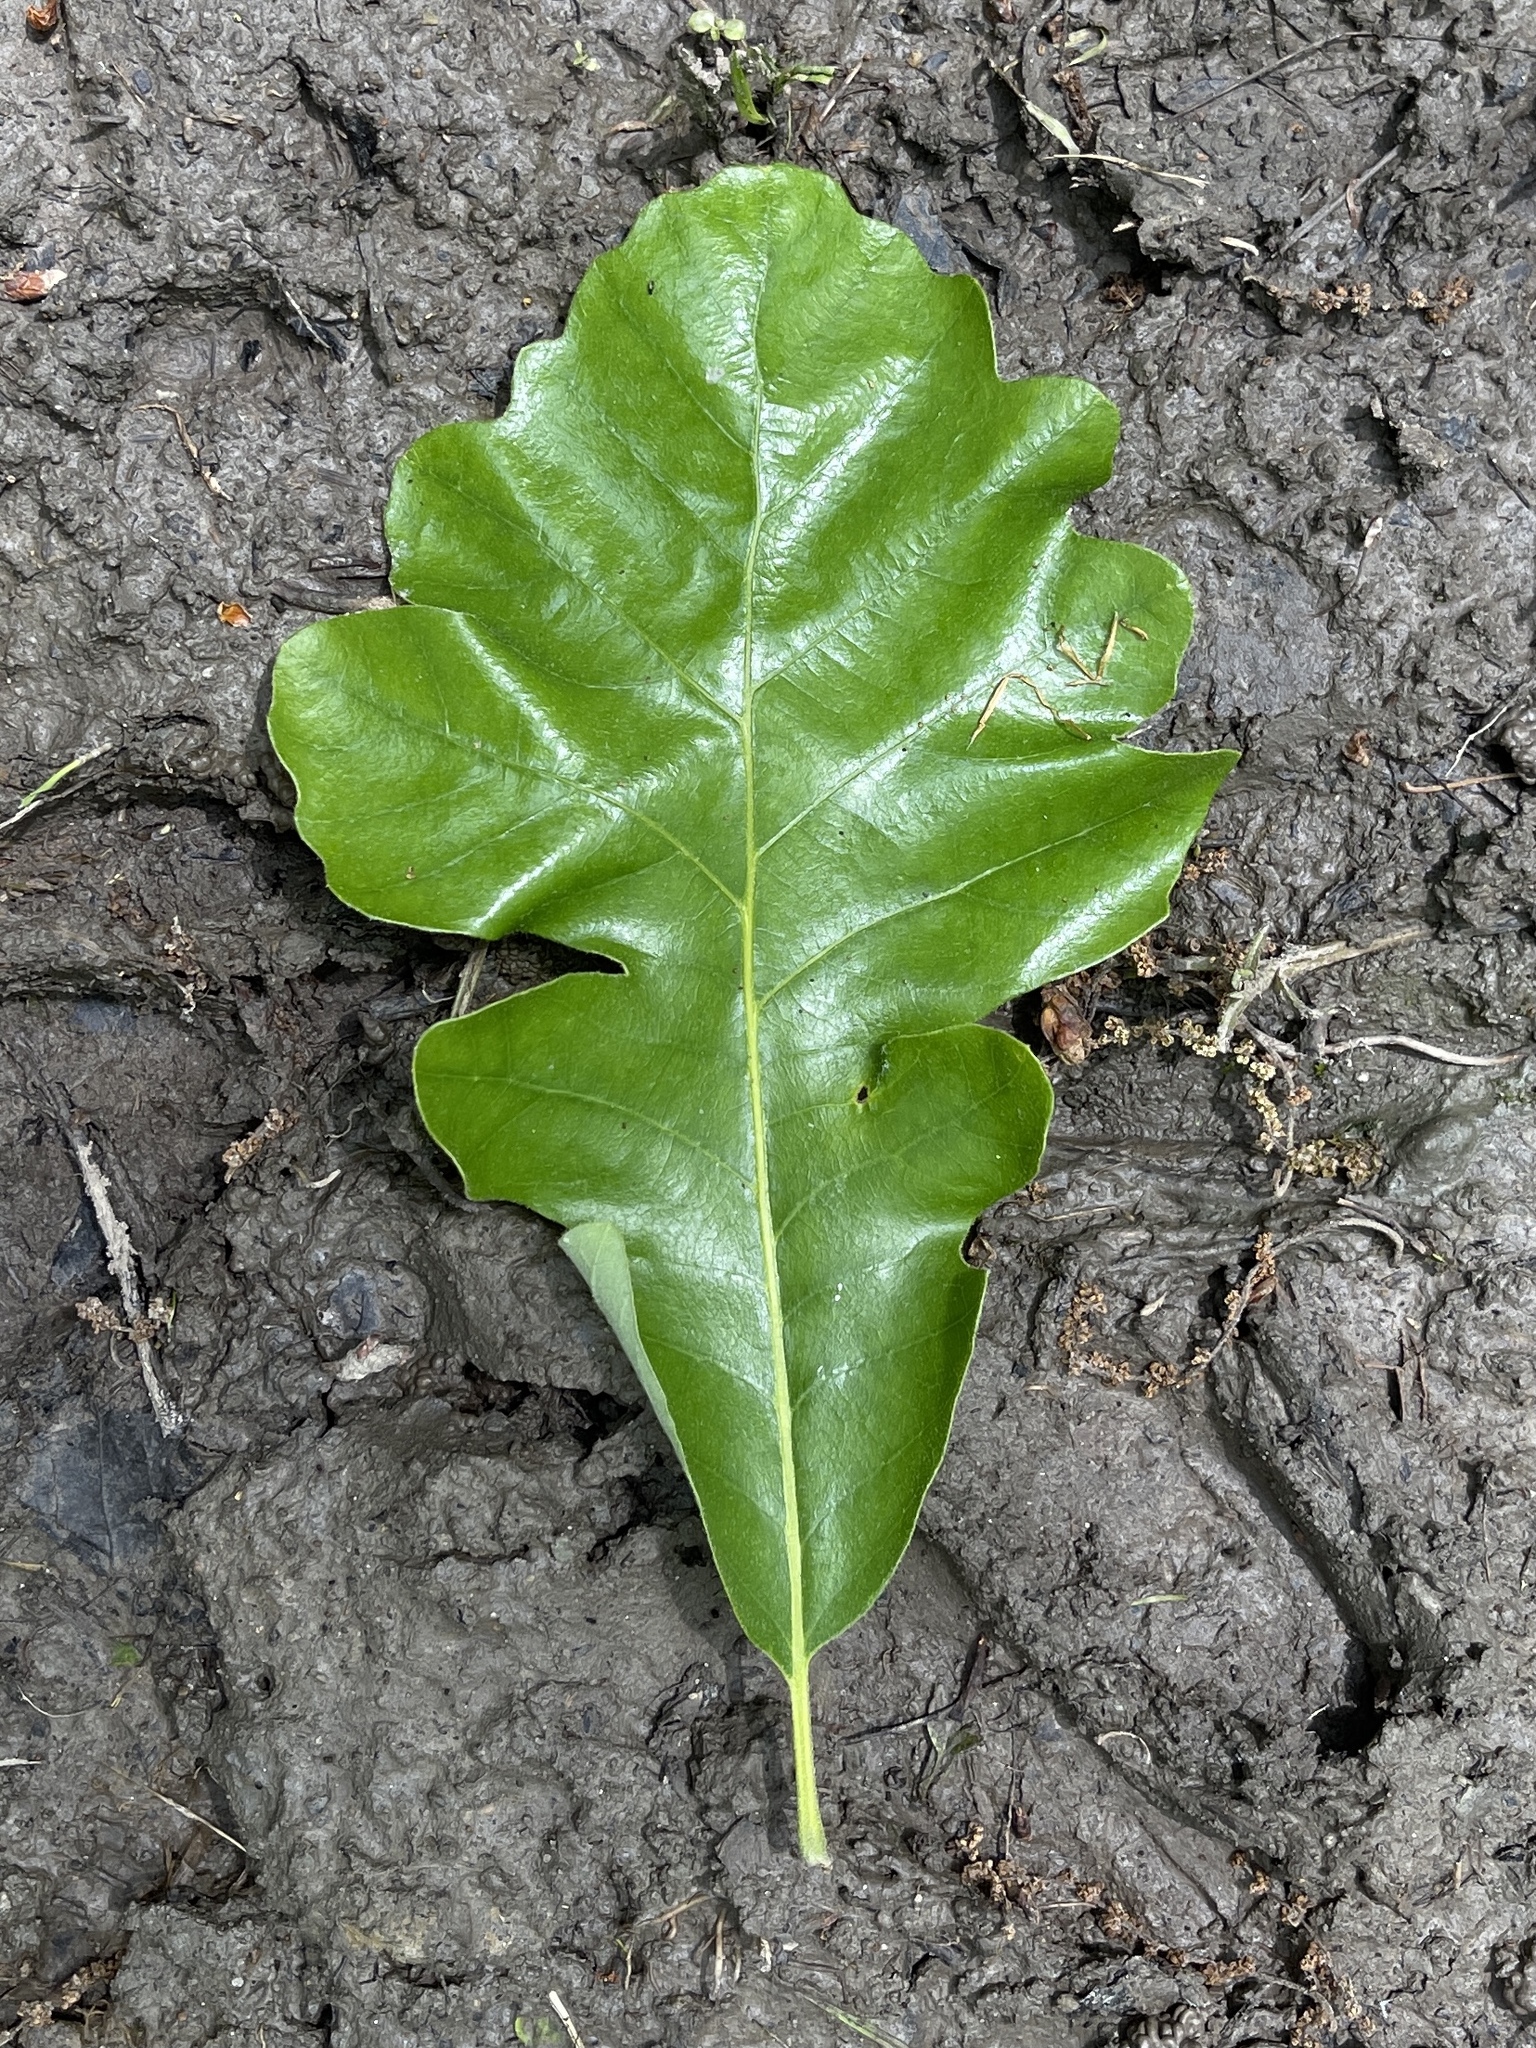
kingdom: Plantae
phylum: Tracheophyta
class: Magnoliopsida
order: Fagales
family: Fagaceae
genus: Quercus
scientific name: Quercus macrocarpa
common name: Bur oak
